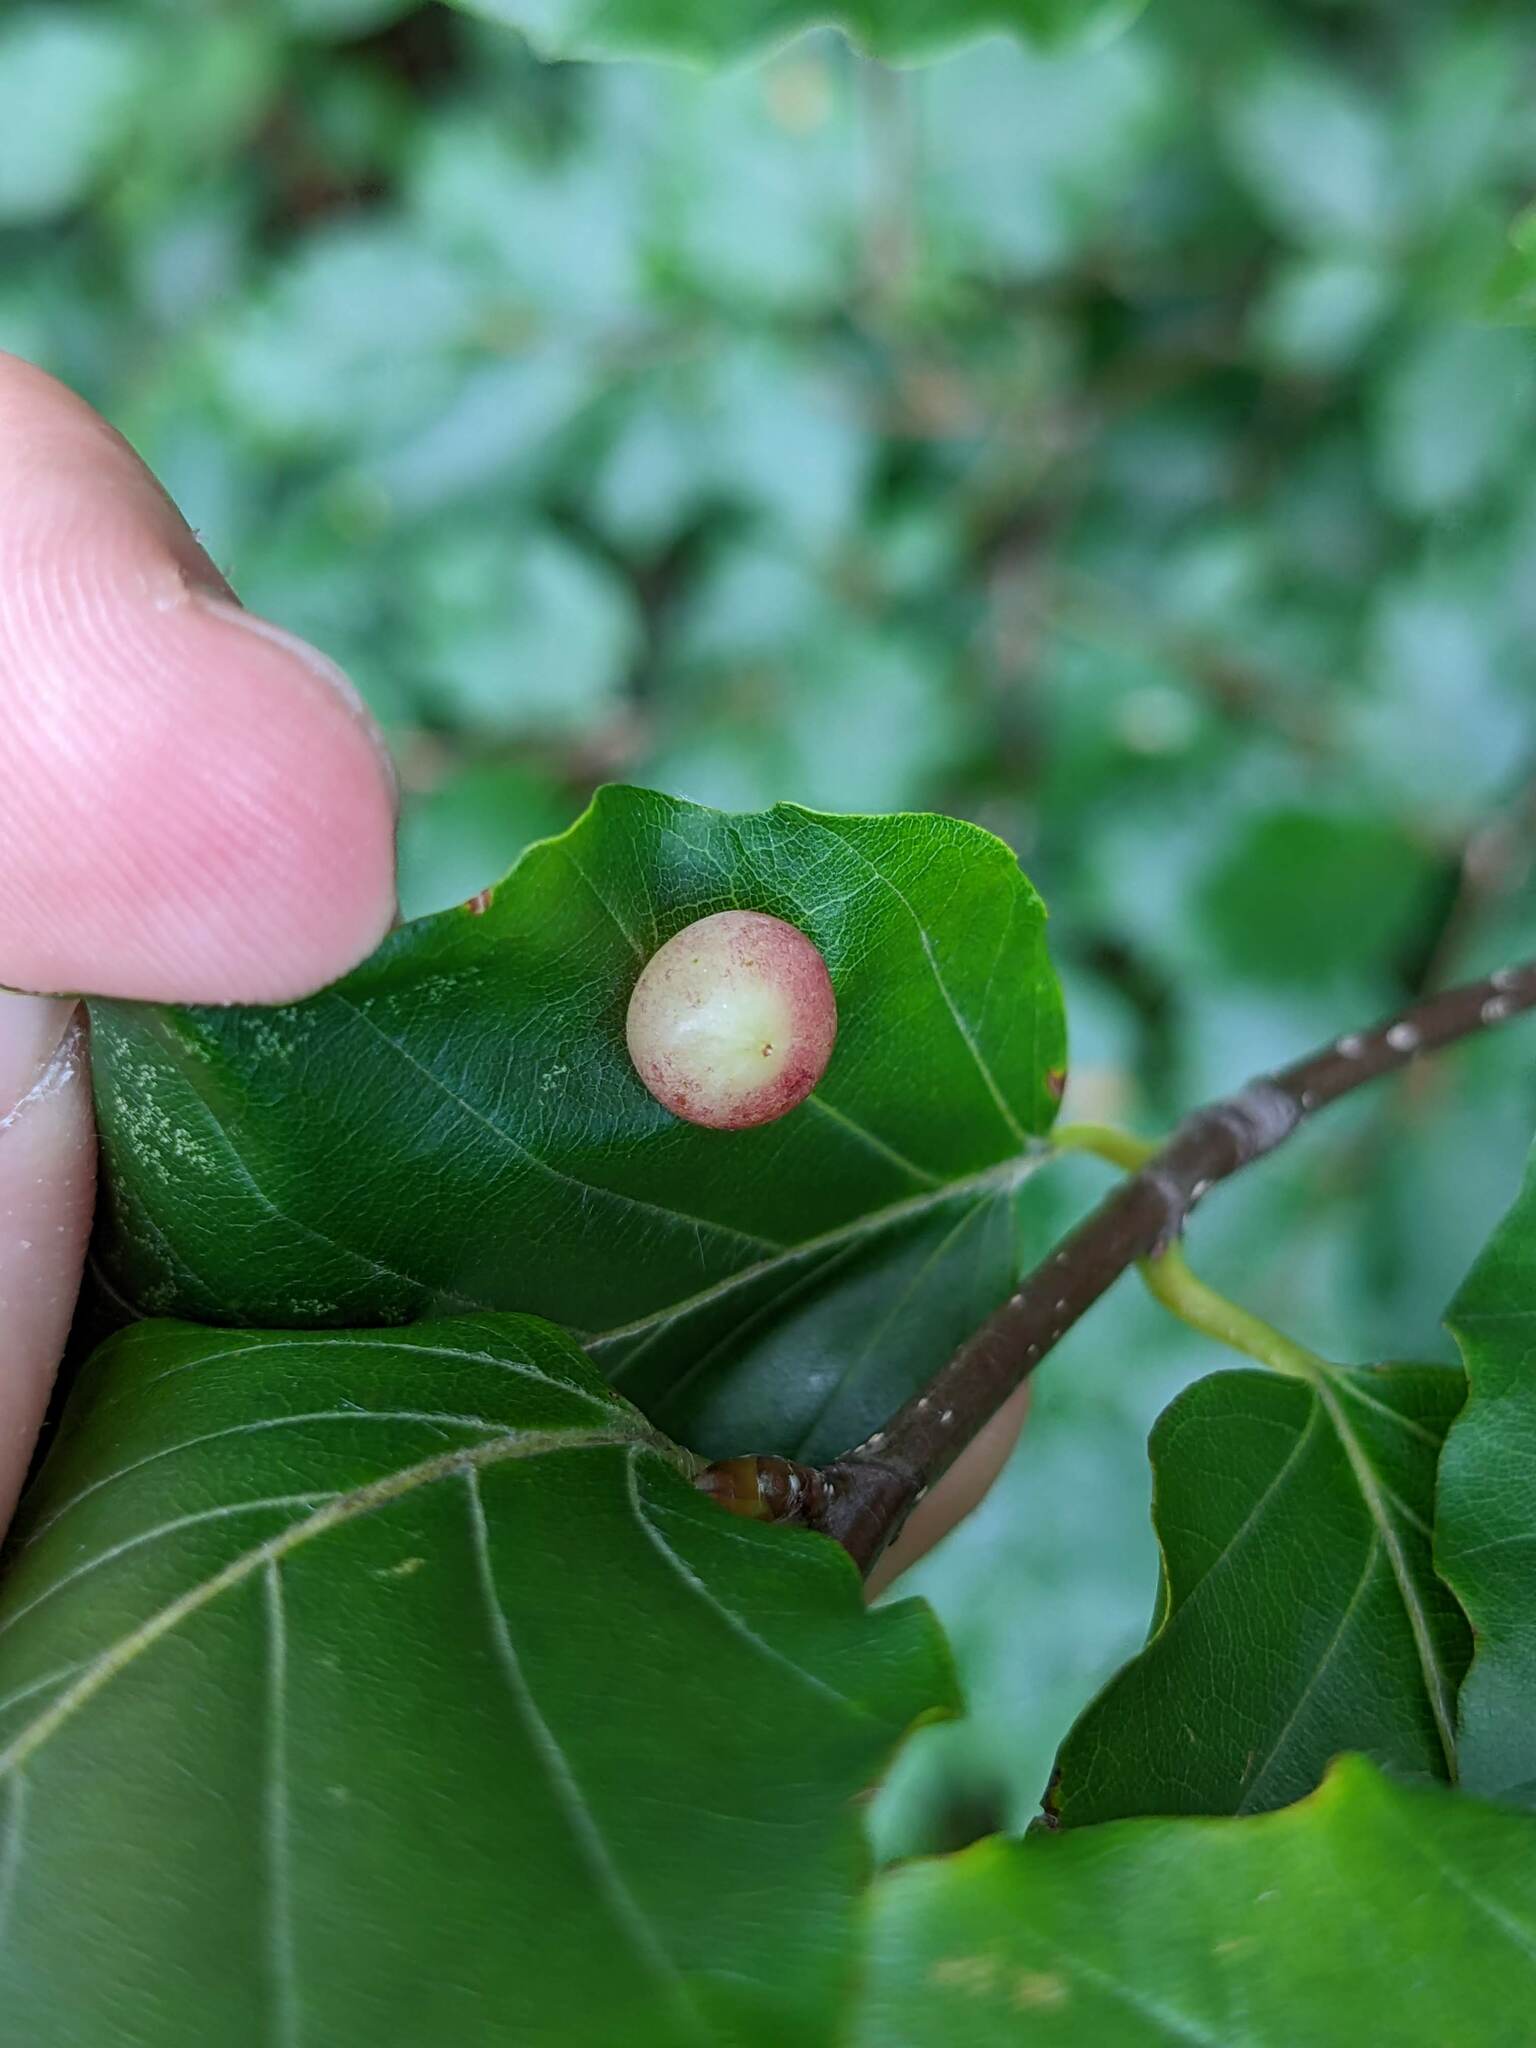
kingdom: Animalia
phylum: Arthropoda
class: Insecta
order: Diptera
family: Cecidomyiidae
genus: Mikiola
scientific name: Mikiola fagi
